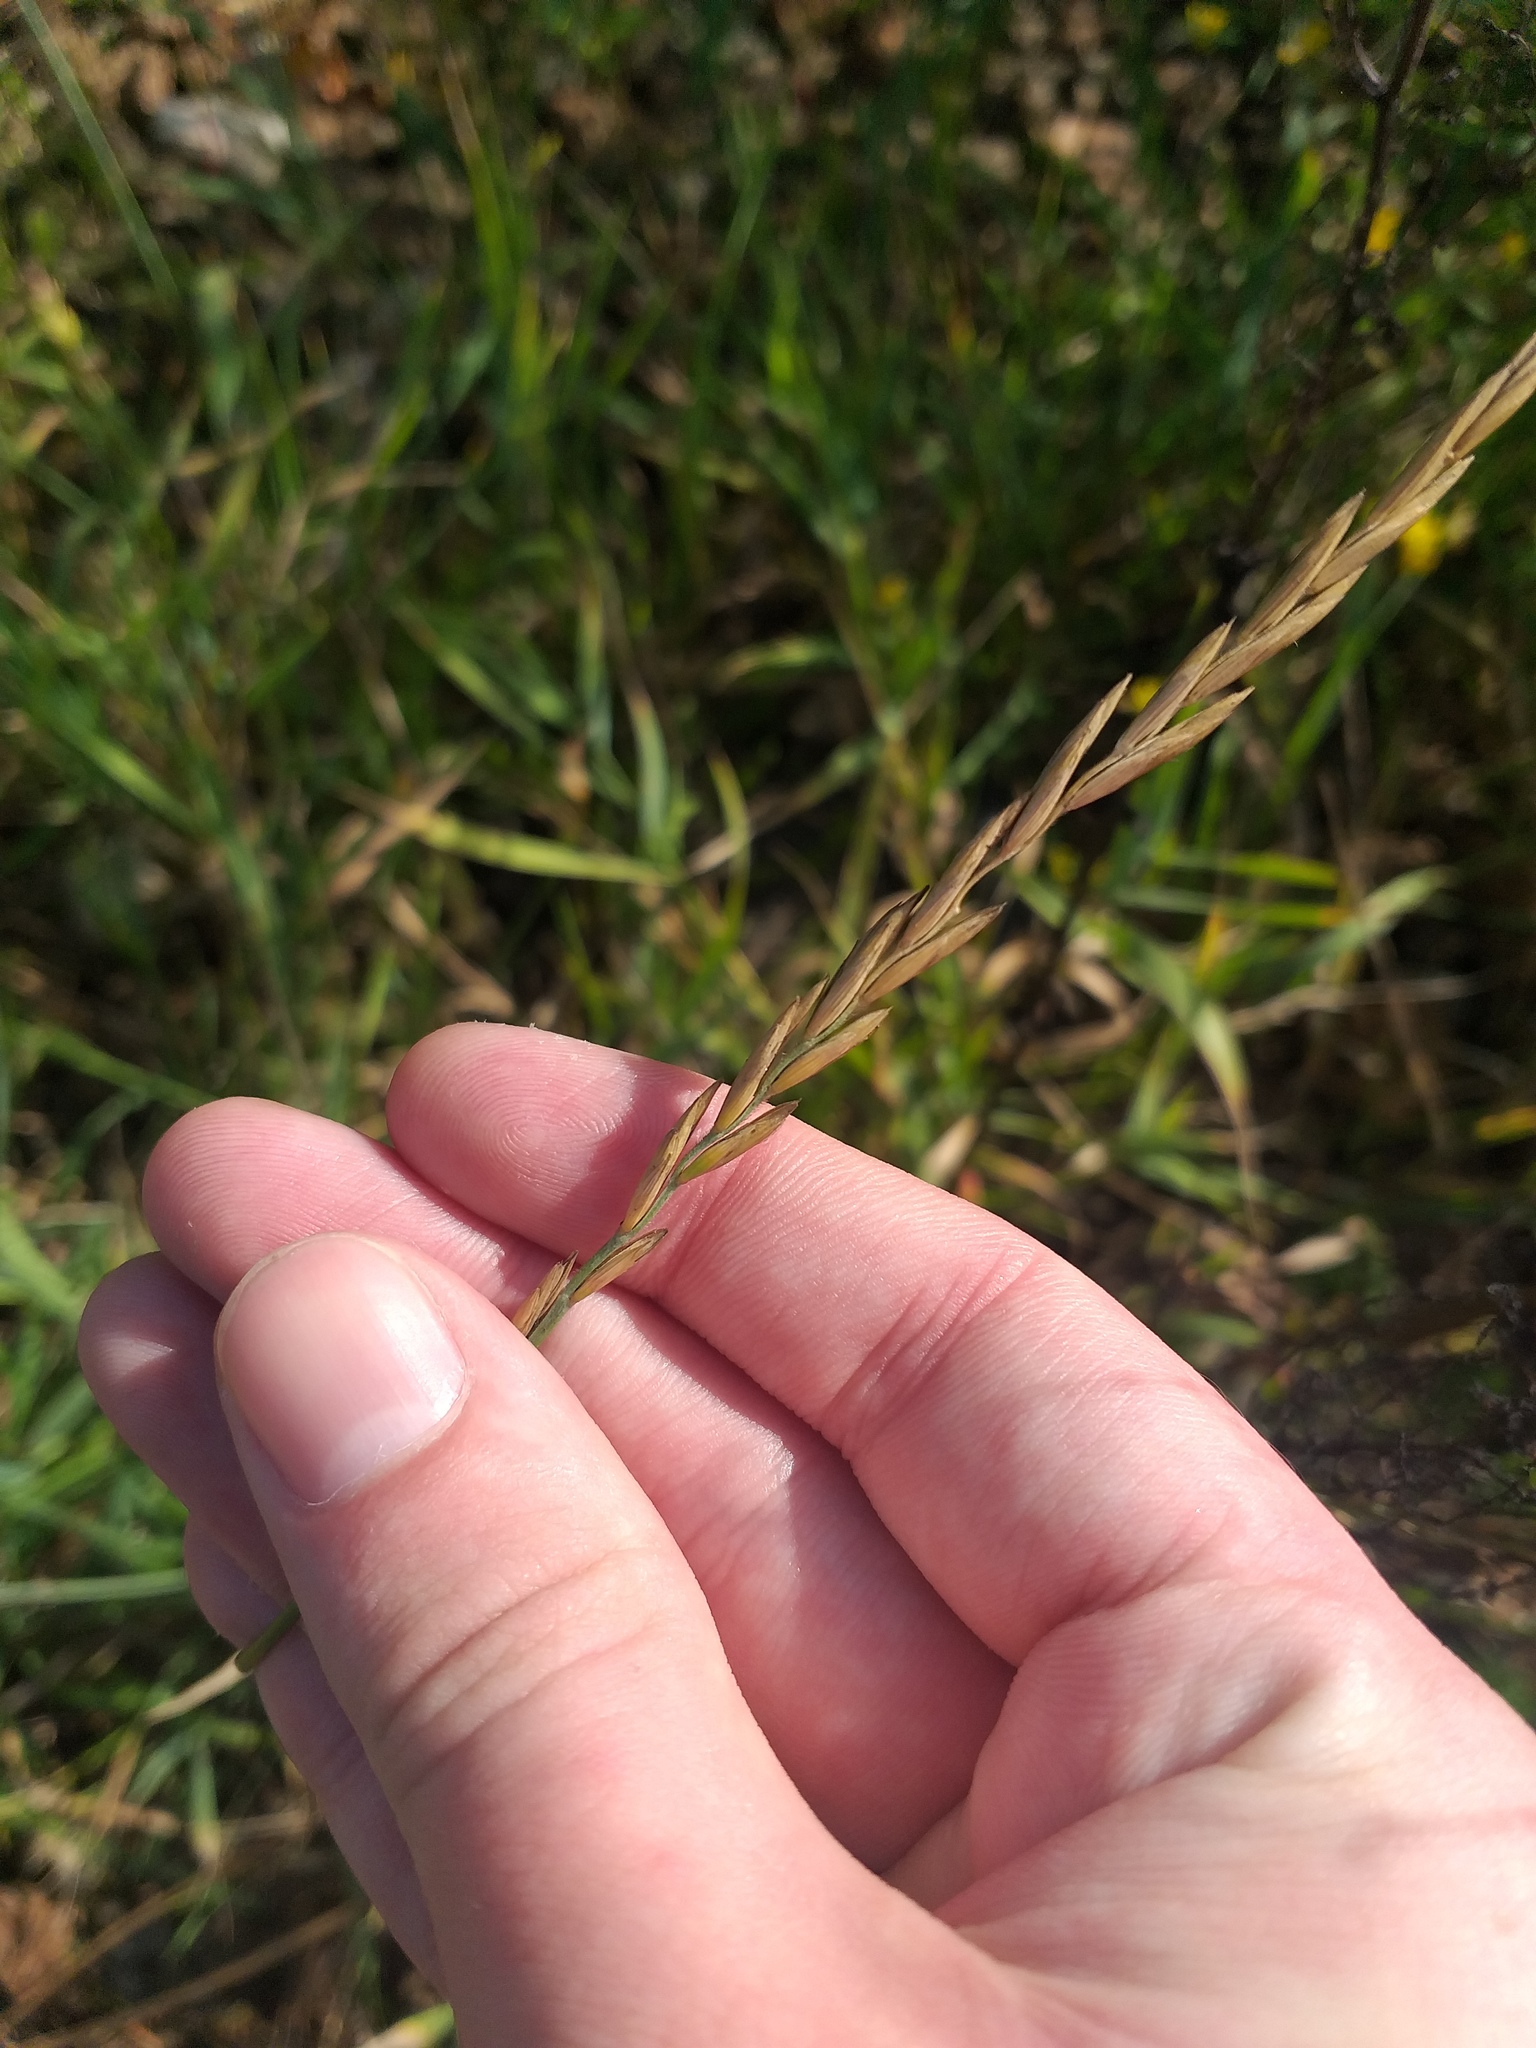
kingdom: Plantae
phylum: Tracheophyta
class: Liliopsida
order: Poales
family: Poaceae
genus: Elymus
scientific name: Elymus repens
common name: Quackgrass
